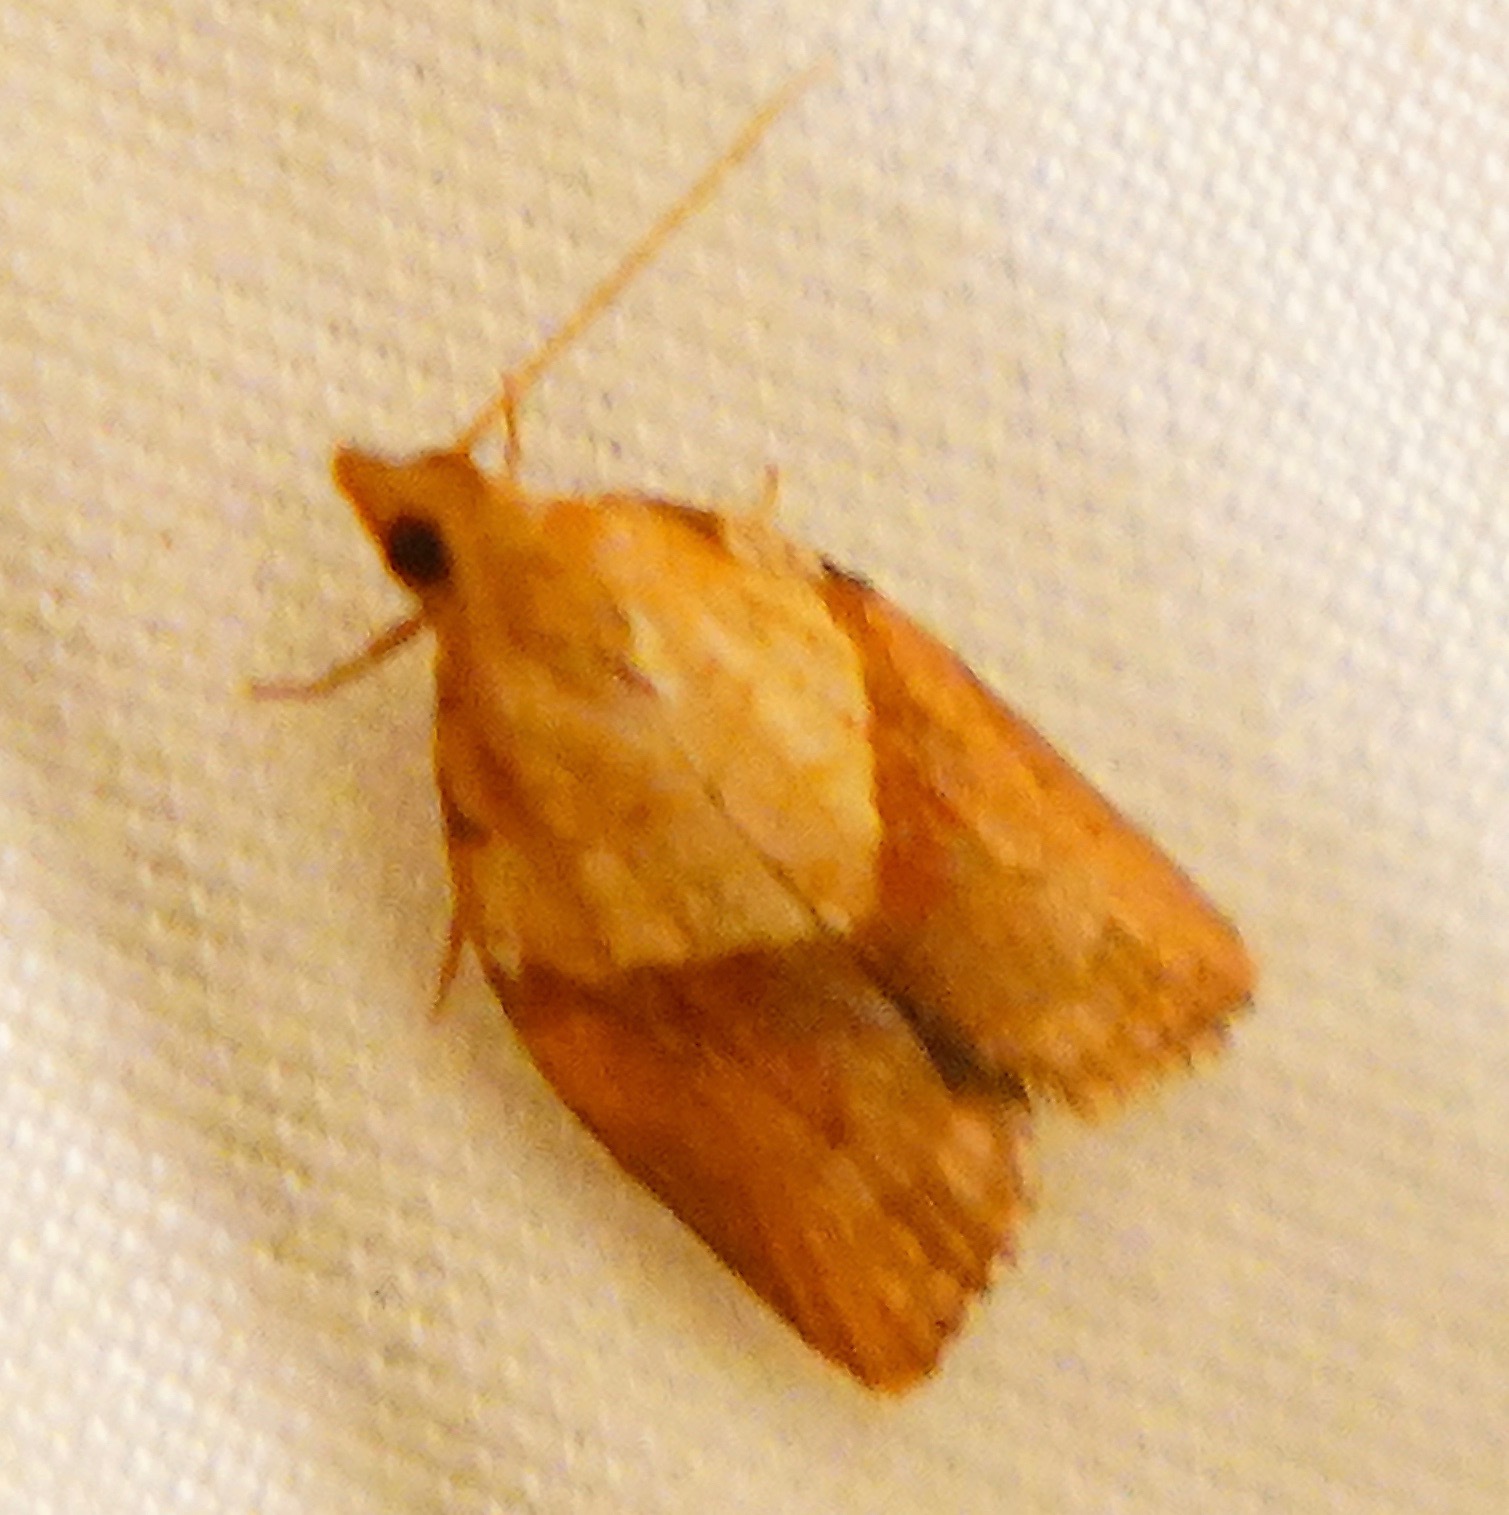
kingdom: Animalia
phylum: Arthropoda
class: Insecta
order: Lepidoptera
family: Tortricidae
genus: Epiphyas
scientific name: Epiphyas postvittana
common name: Light brown apple moth
